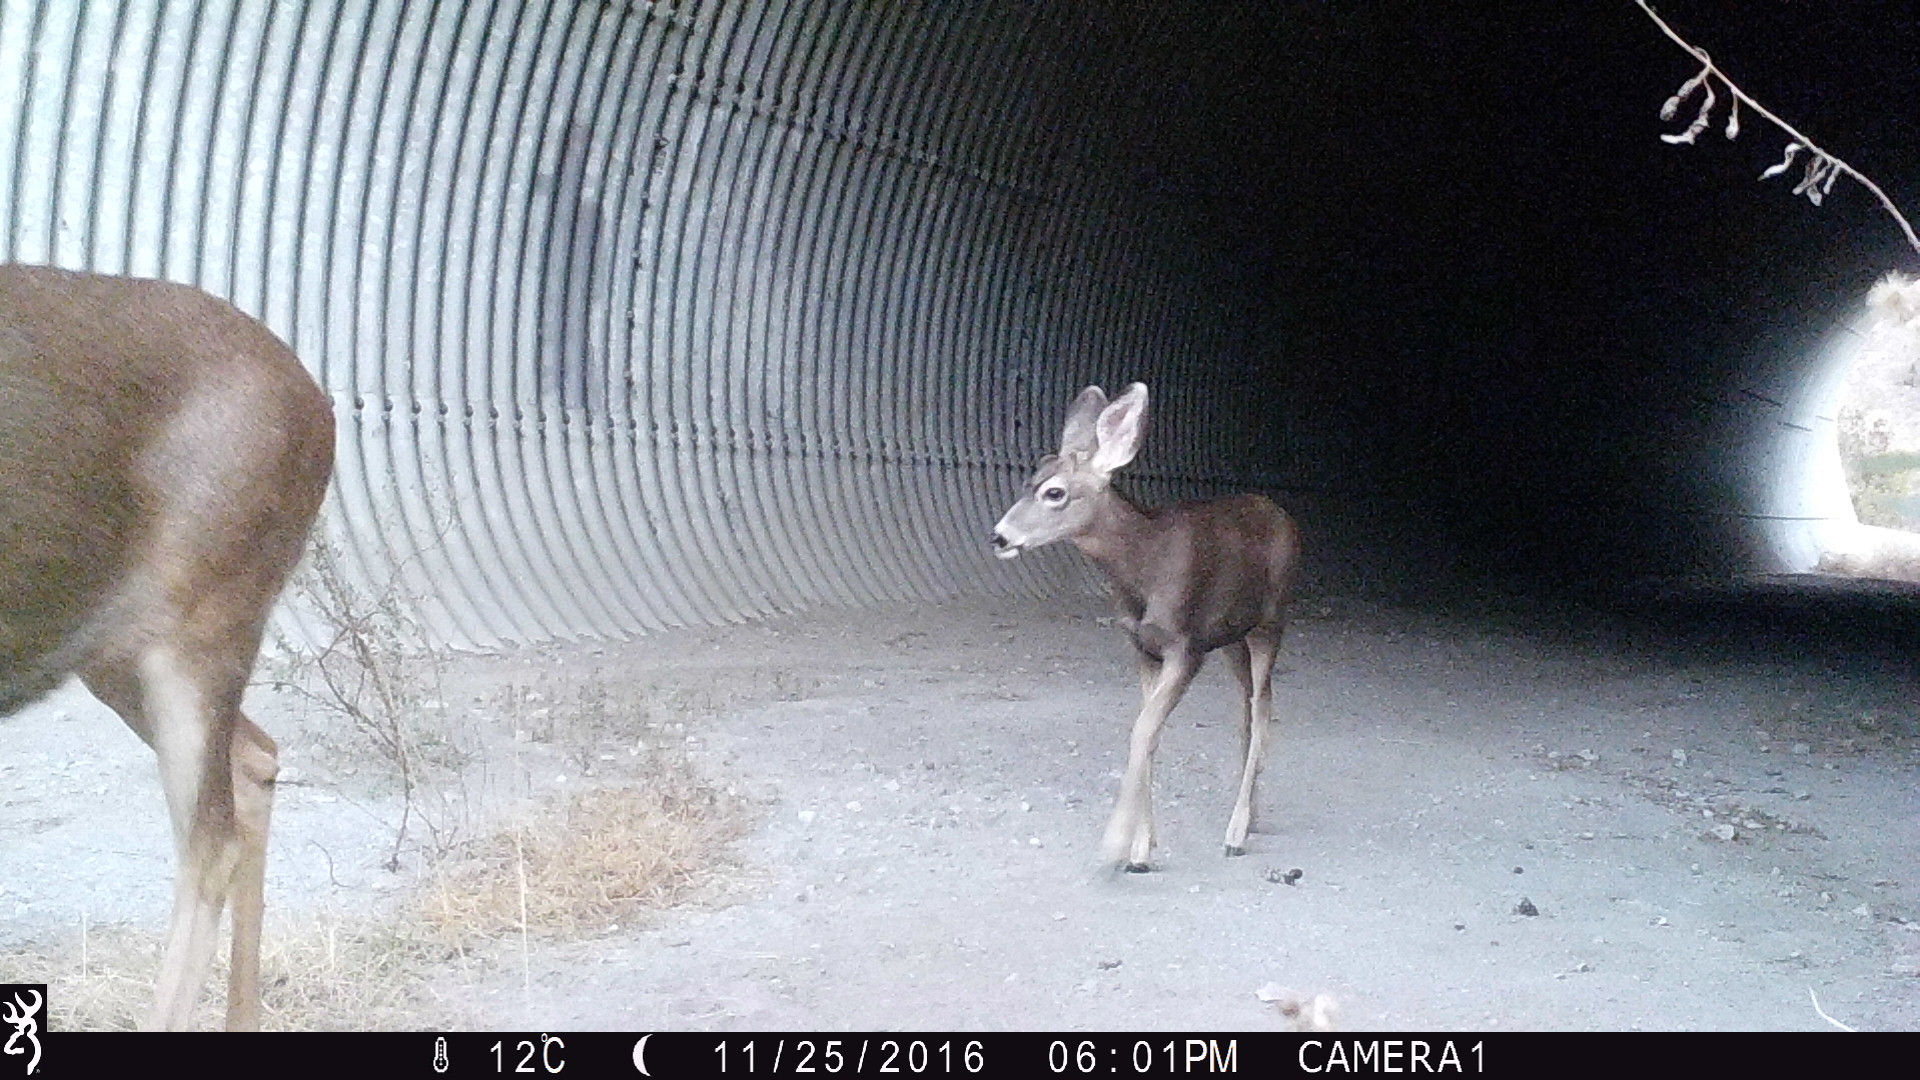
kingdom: Animalia
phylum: Chordata
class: Mammalia
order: Artiodactyla
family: Cervidae
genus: Odocoileus
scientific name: Odocoileus hemionus
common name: Mule deer
